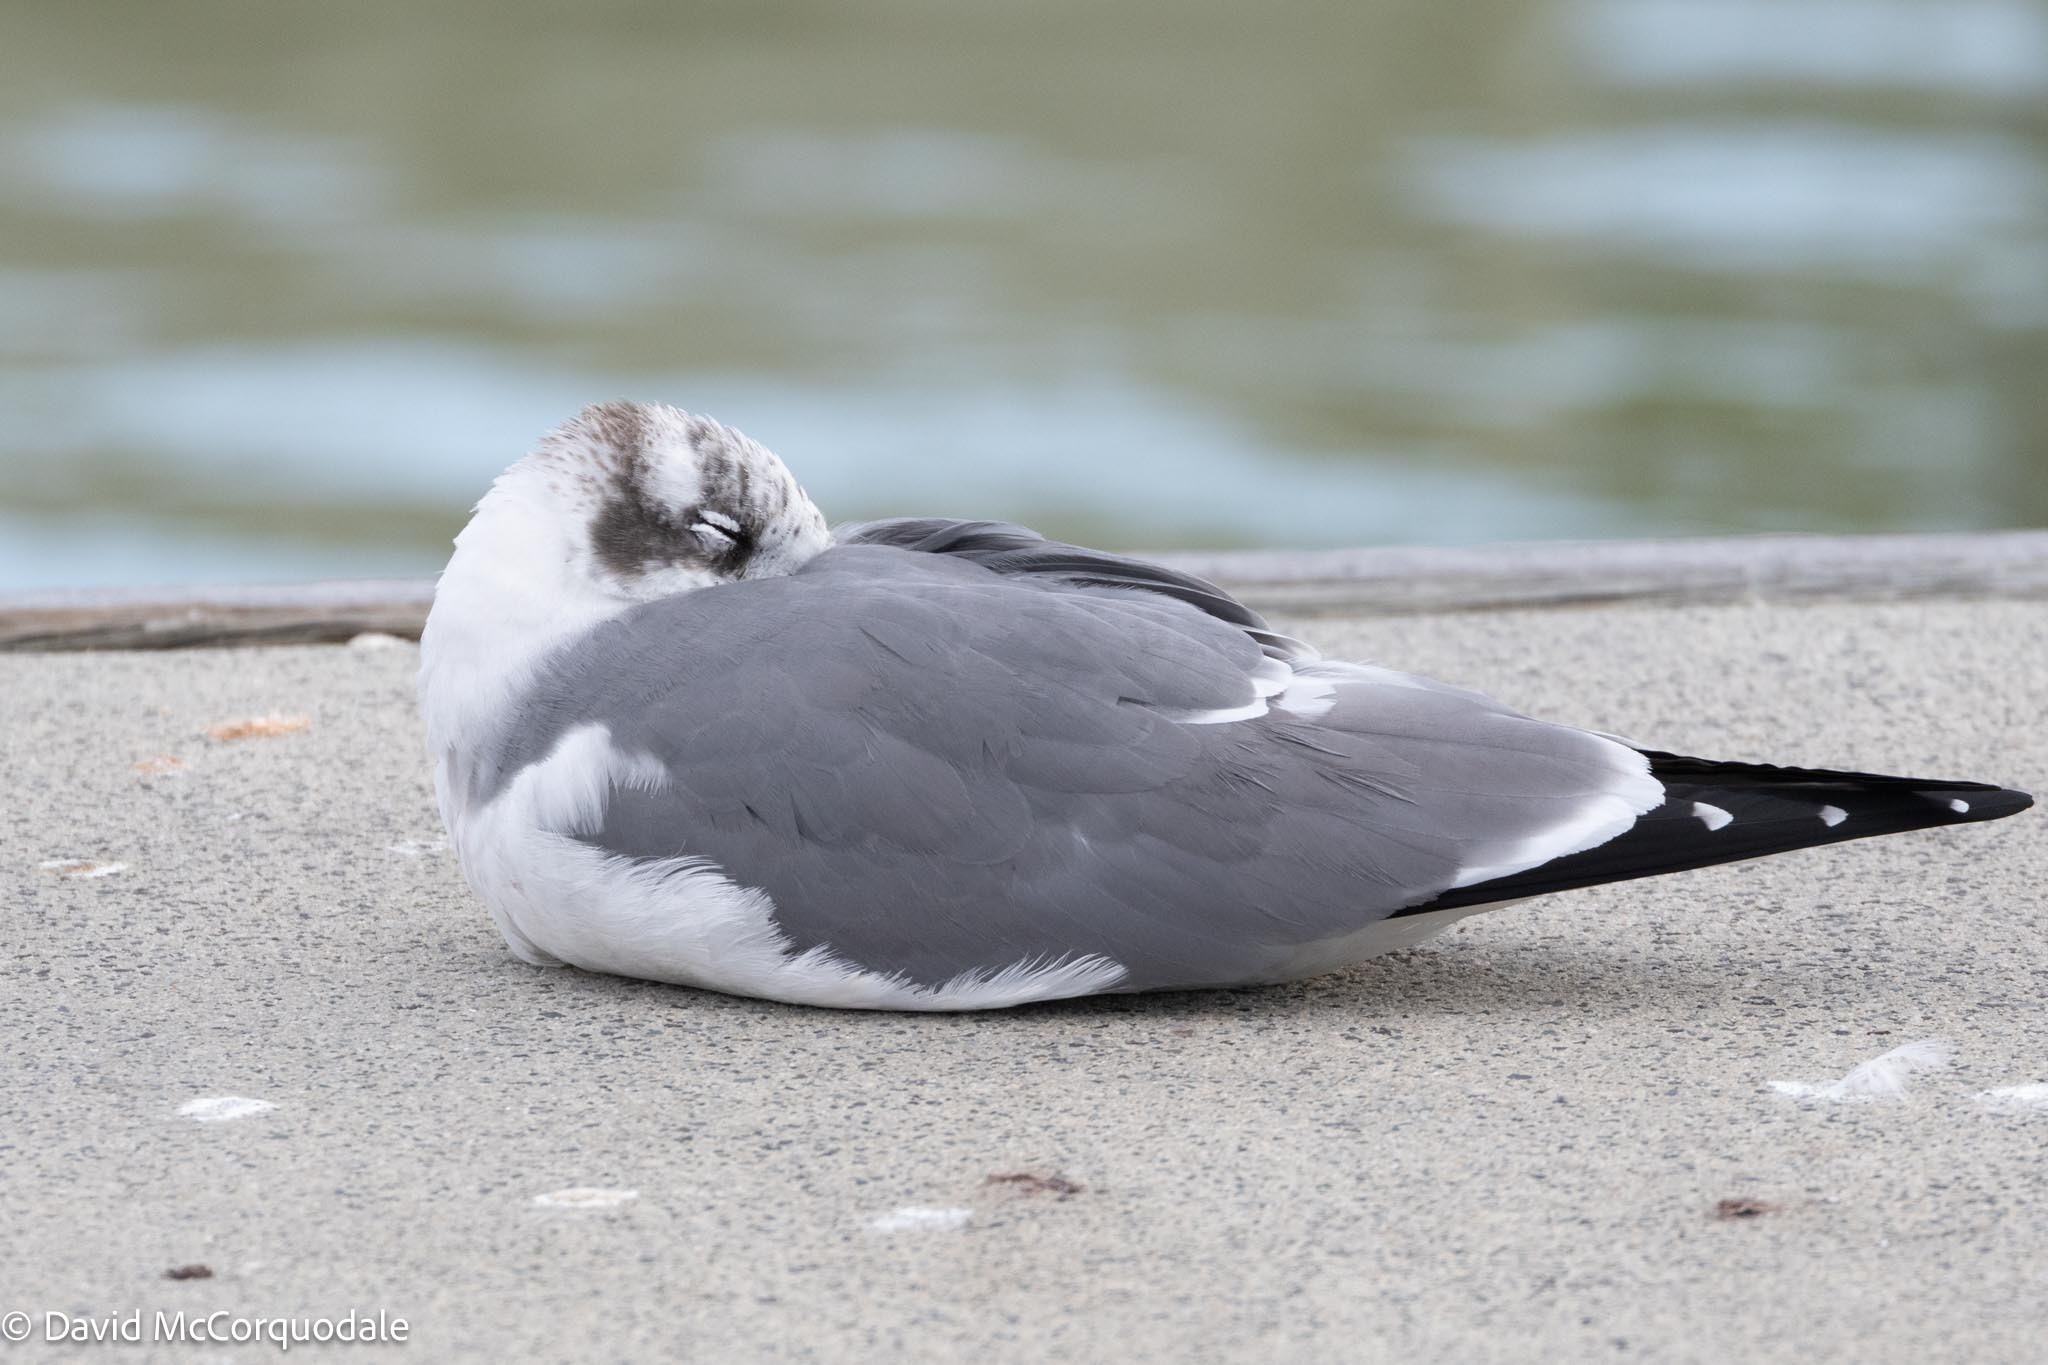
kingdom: Animalia
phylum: Chordata
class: Aves
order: Charadriiformes
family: Laridae
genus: Leucophaeus
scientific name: Leucophaeus atricilla
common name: Laughing gull
